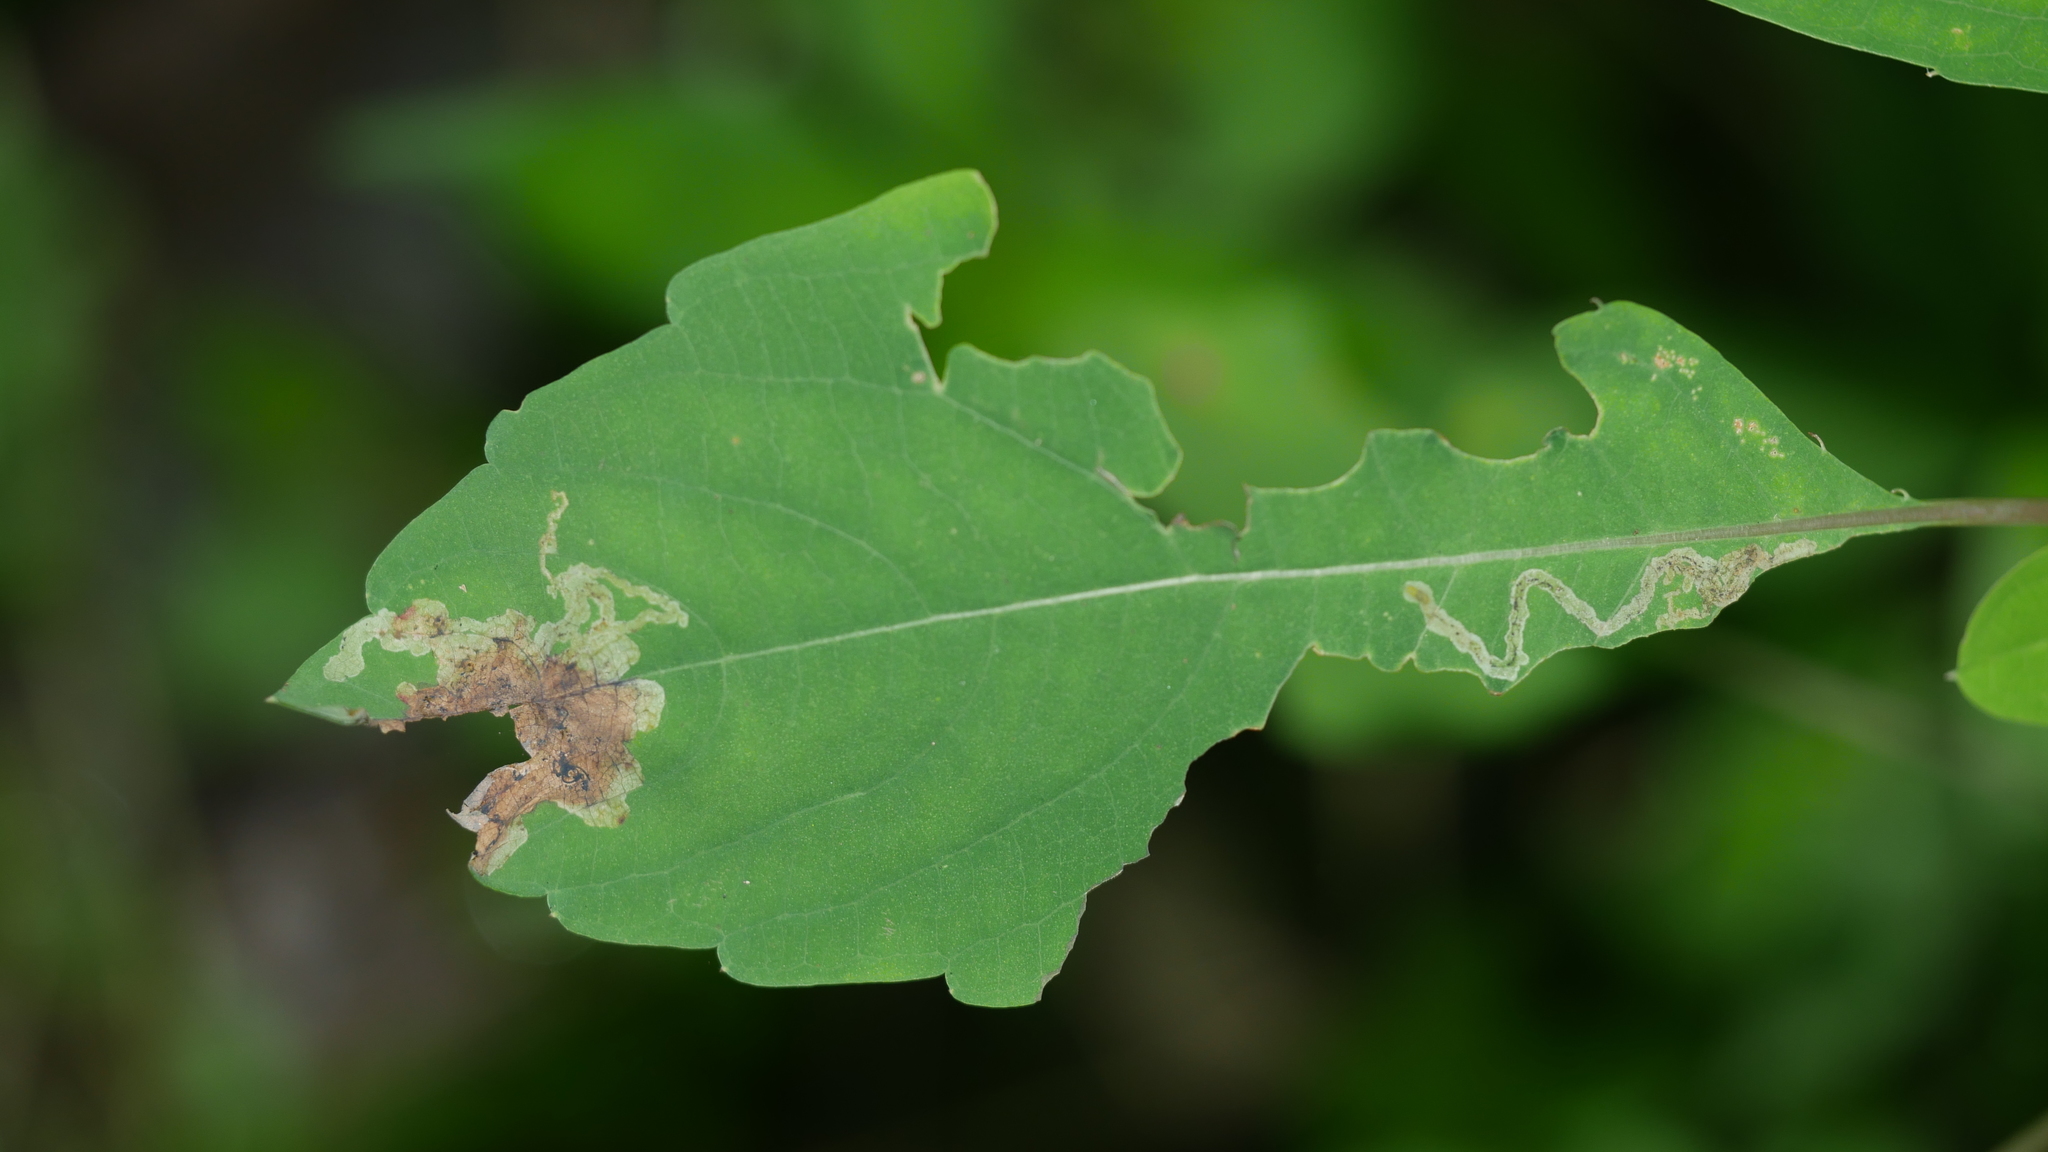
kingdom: Animalia
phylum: Arthropoda
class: Insecta
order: Diptera
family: Agromyzidae
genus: Phytoliriomyza
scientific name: Phytoliriomyza melampyga
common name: Jewelweed leaf-miner fly
